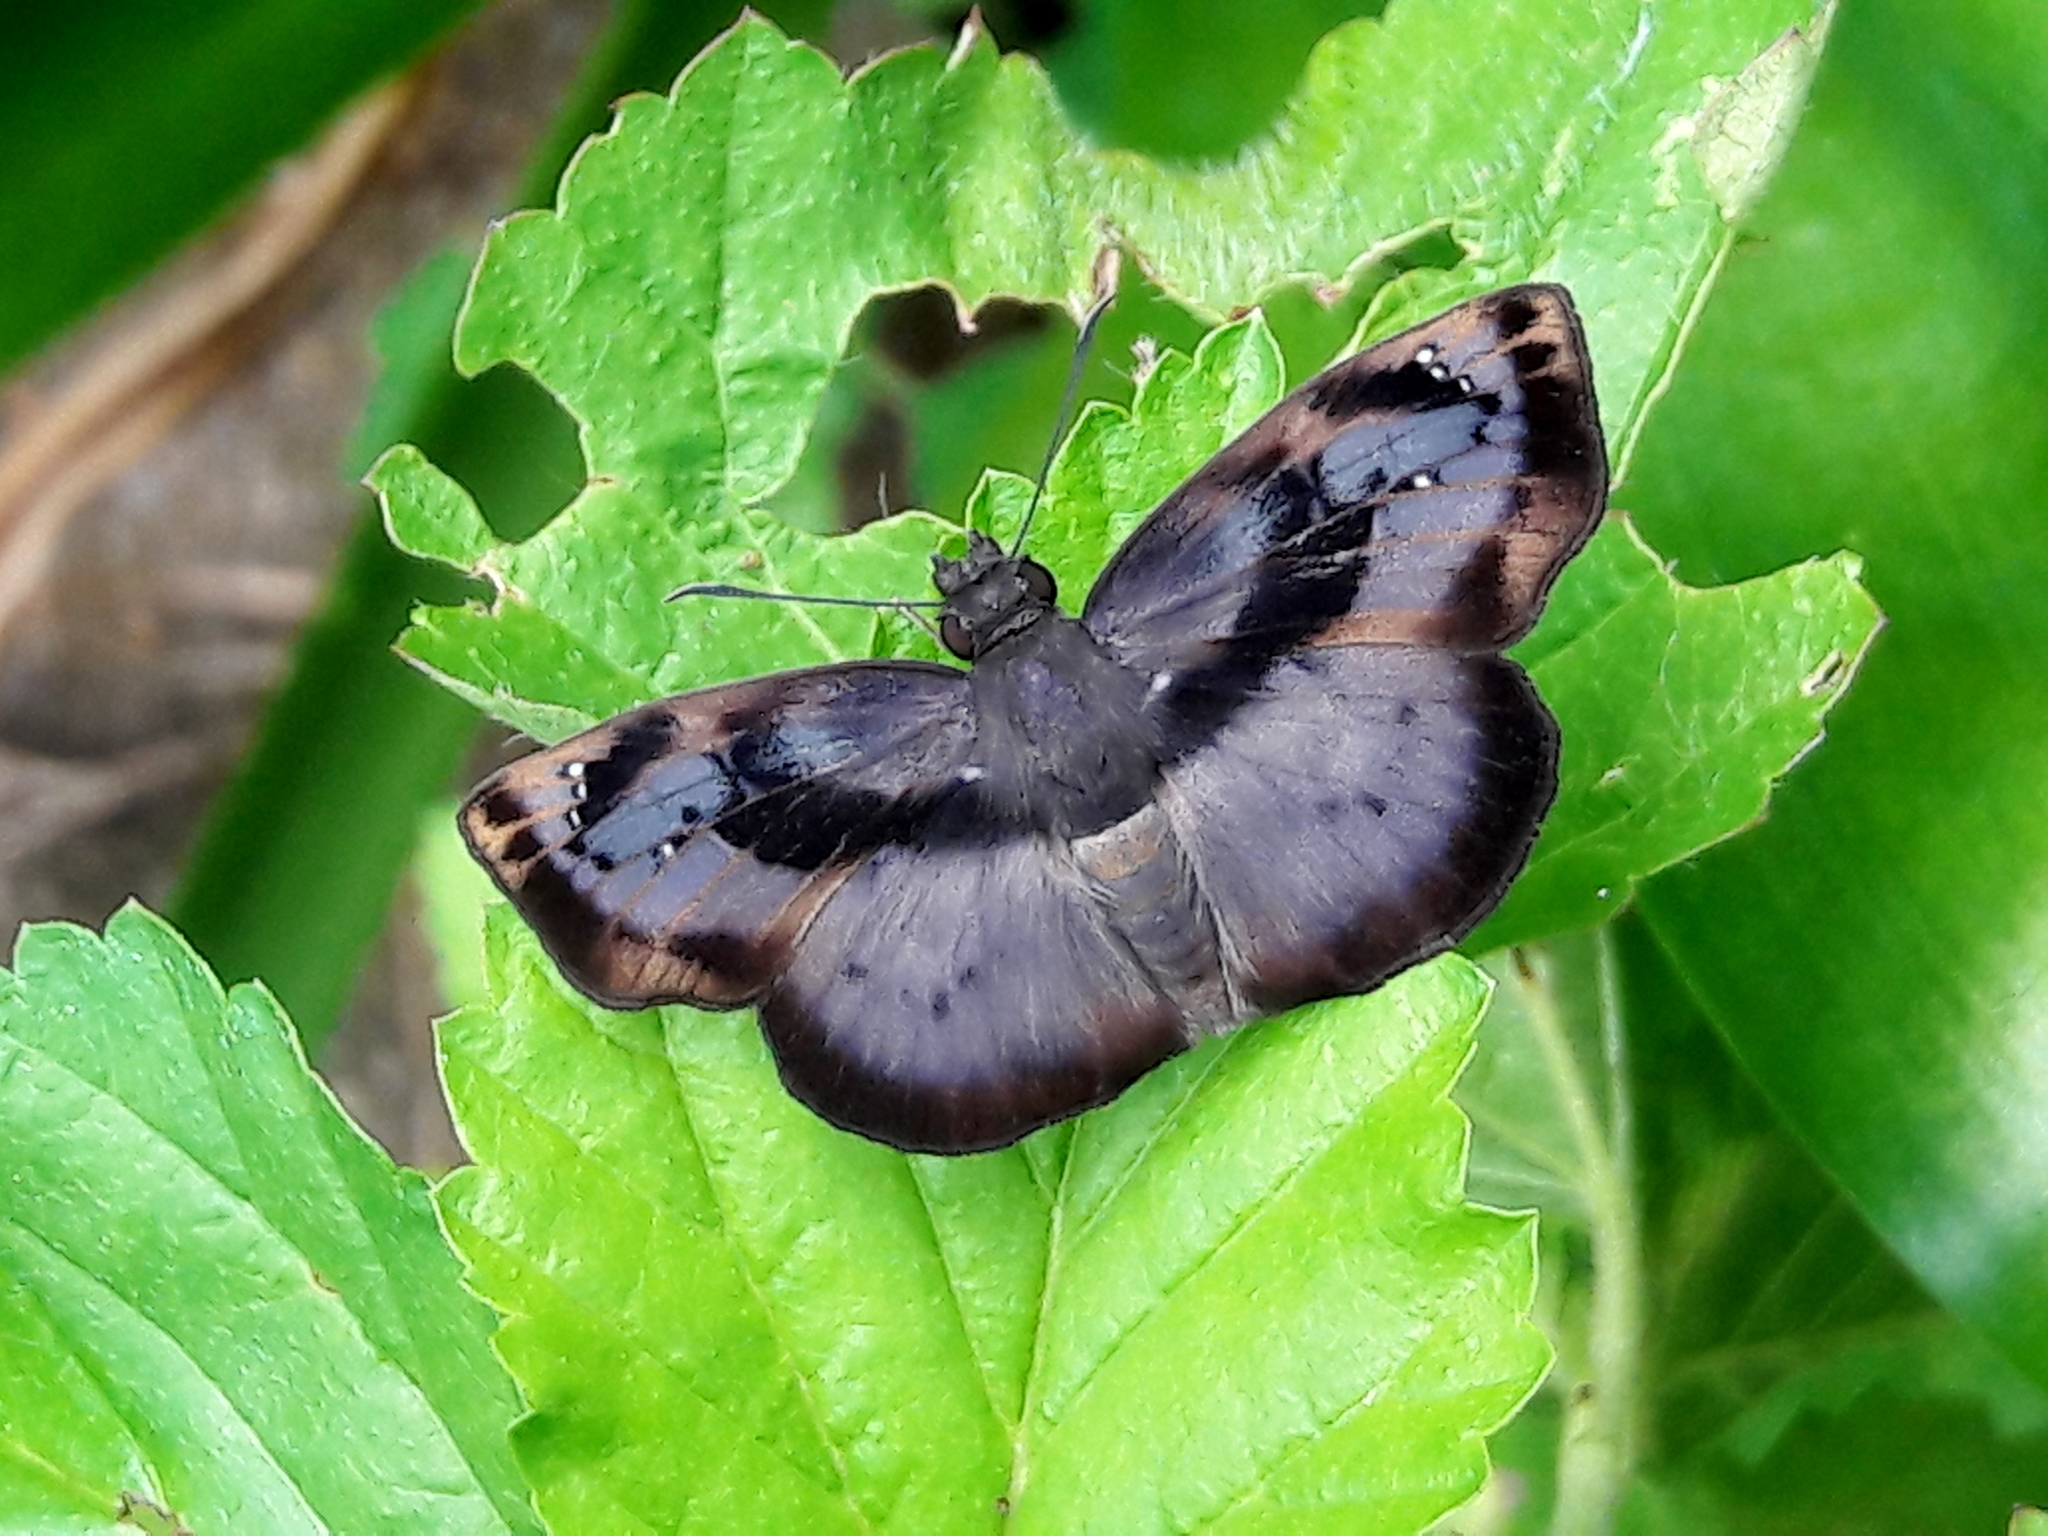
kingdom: Animalia
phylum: Arthropoda
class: Insecta
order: Lepidoptera
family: Hesperiidae
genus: Zera
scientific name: Zera tetrastigma
